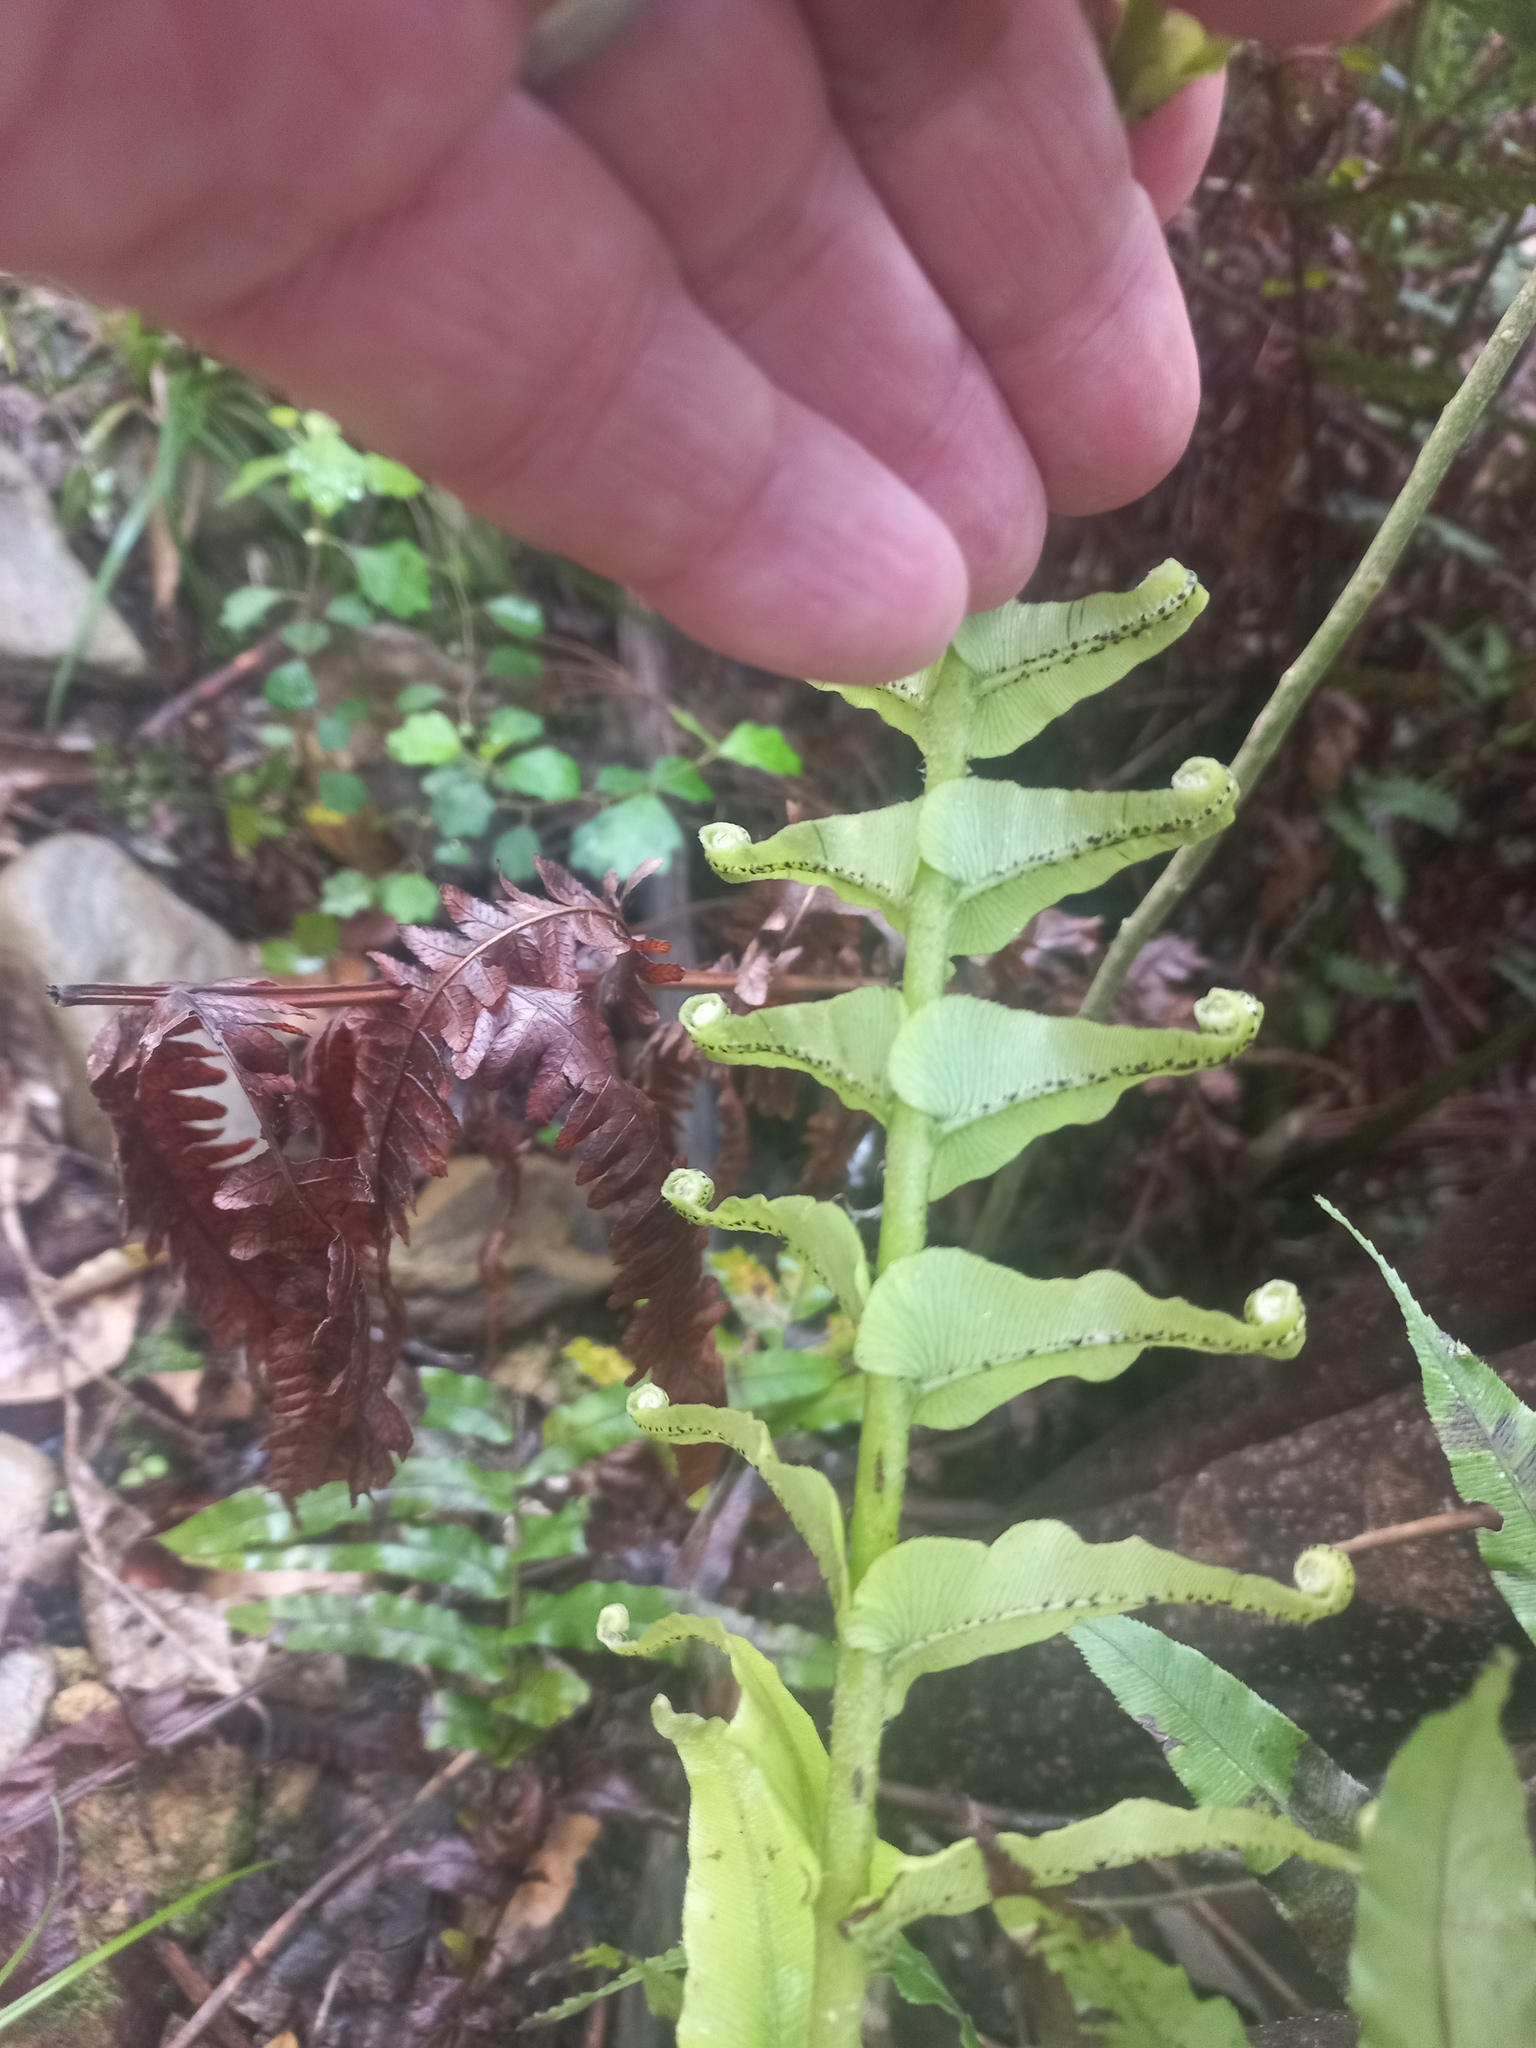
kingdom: Plantae
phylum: Tracheophyta
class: Polypodiopsida
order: Polypodiales
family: Blechnaceae
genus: Parablechnum
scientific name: Parablechnum novae-zelandiae
